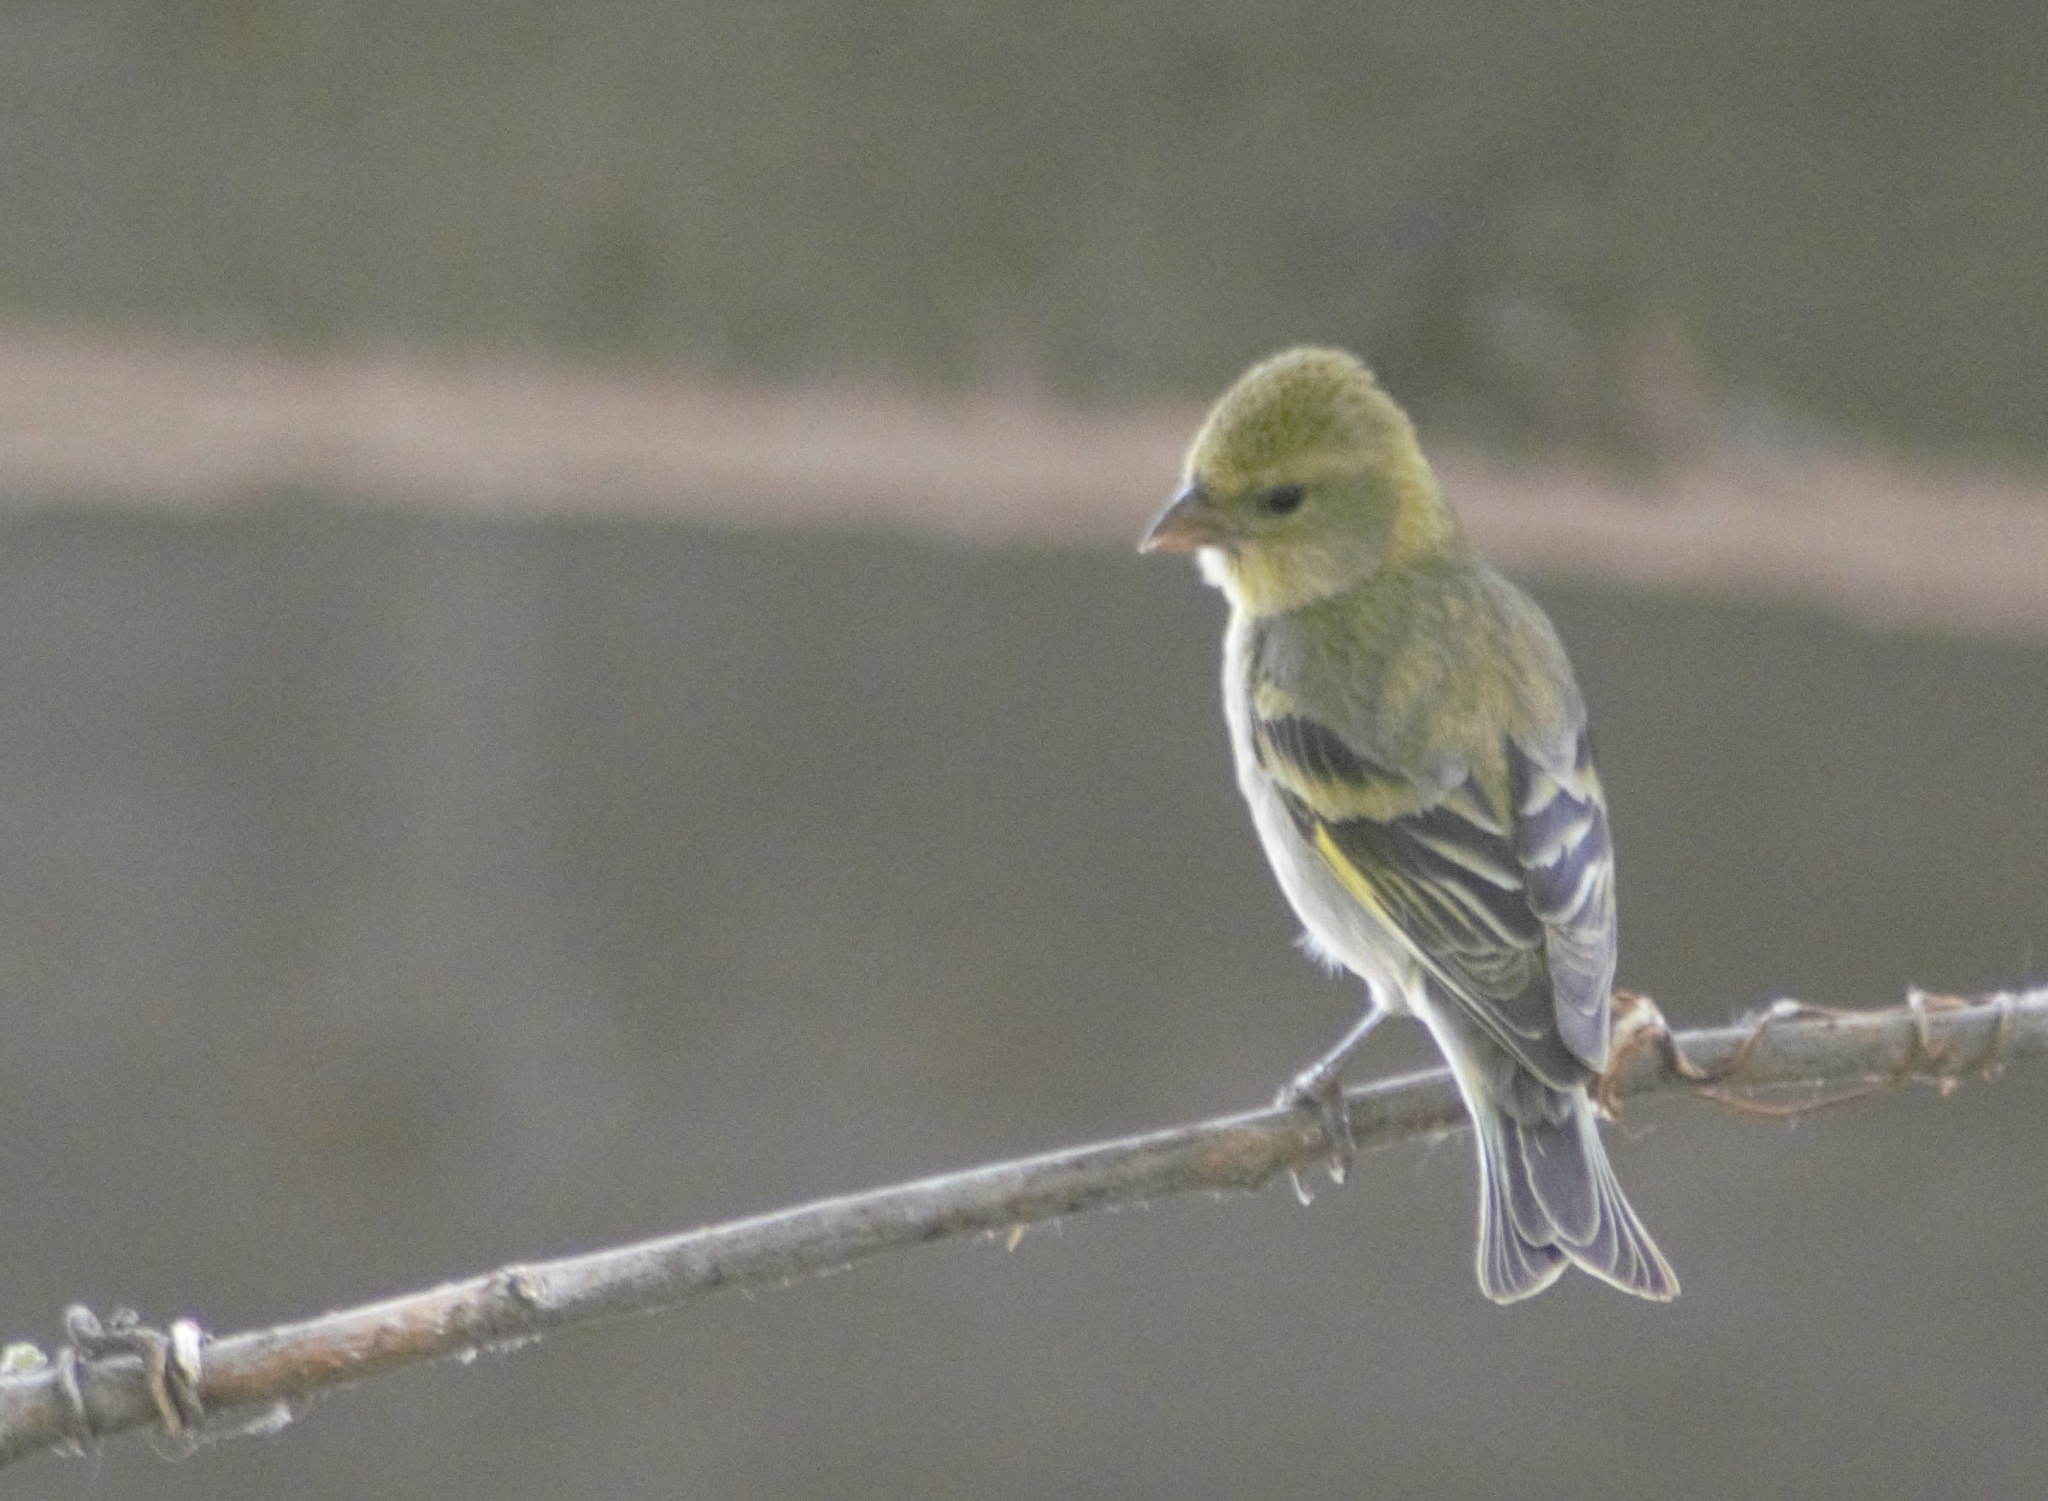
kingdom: Animalia
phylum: Chordata
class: Aves
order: Passeriformes
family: Fringillidae
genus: Spinus
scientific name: Spinus barbatus
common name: Black-chinned siskin
